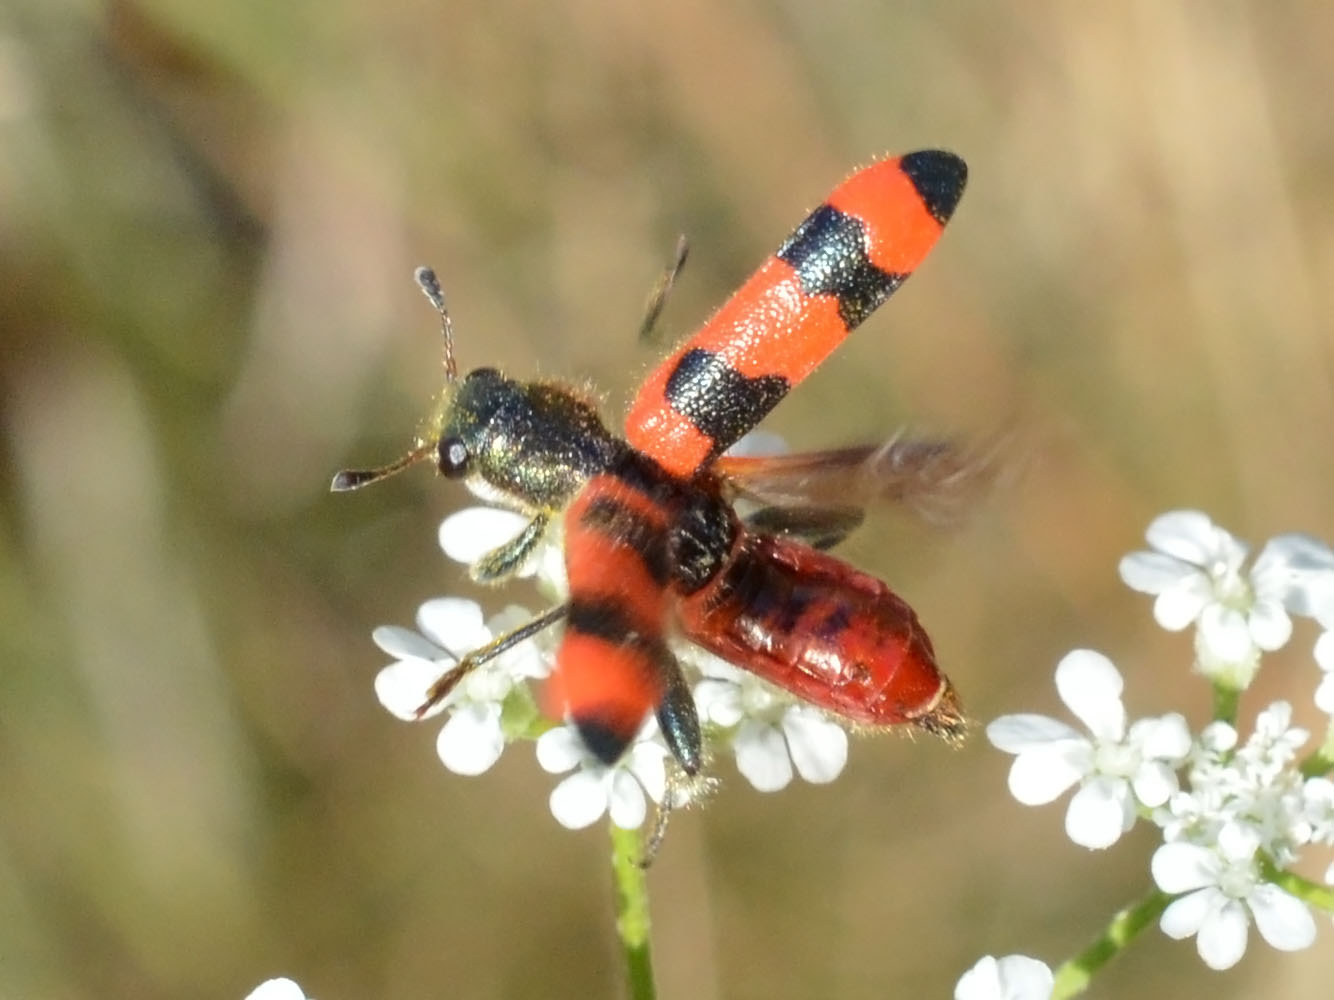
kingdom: Animalia
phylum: Arthropoda
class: Insecta
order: Coleoptera
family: Cleridae
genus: Trichodes
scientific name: Trichodes apiarius
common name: Bee-eating beetle
